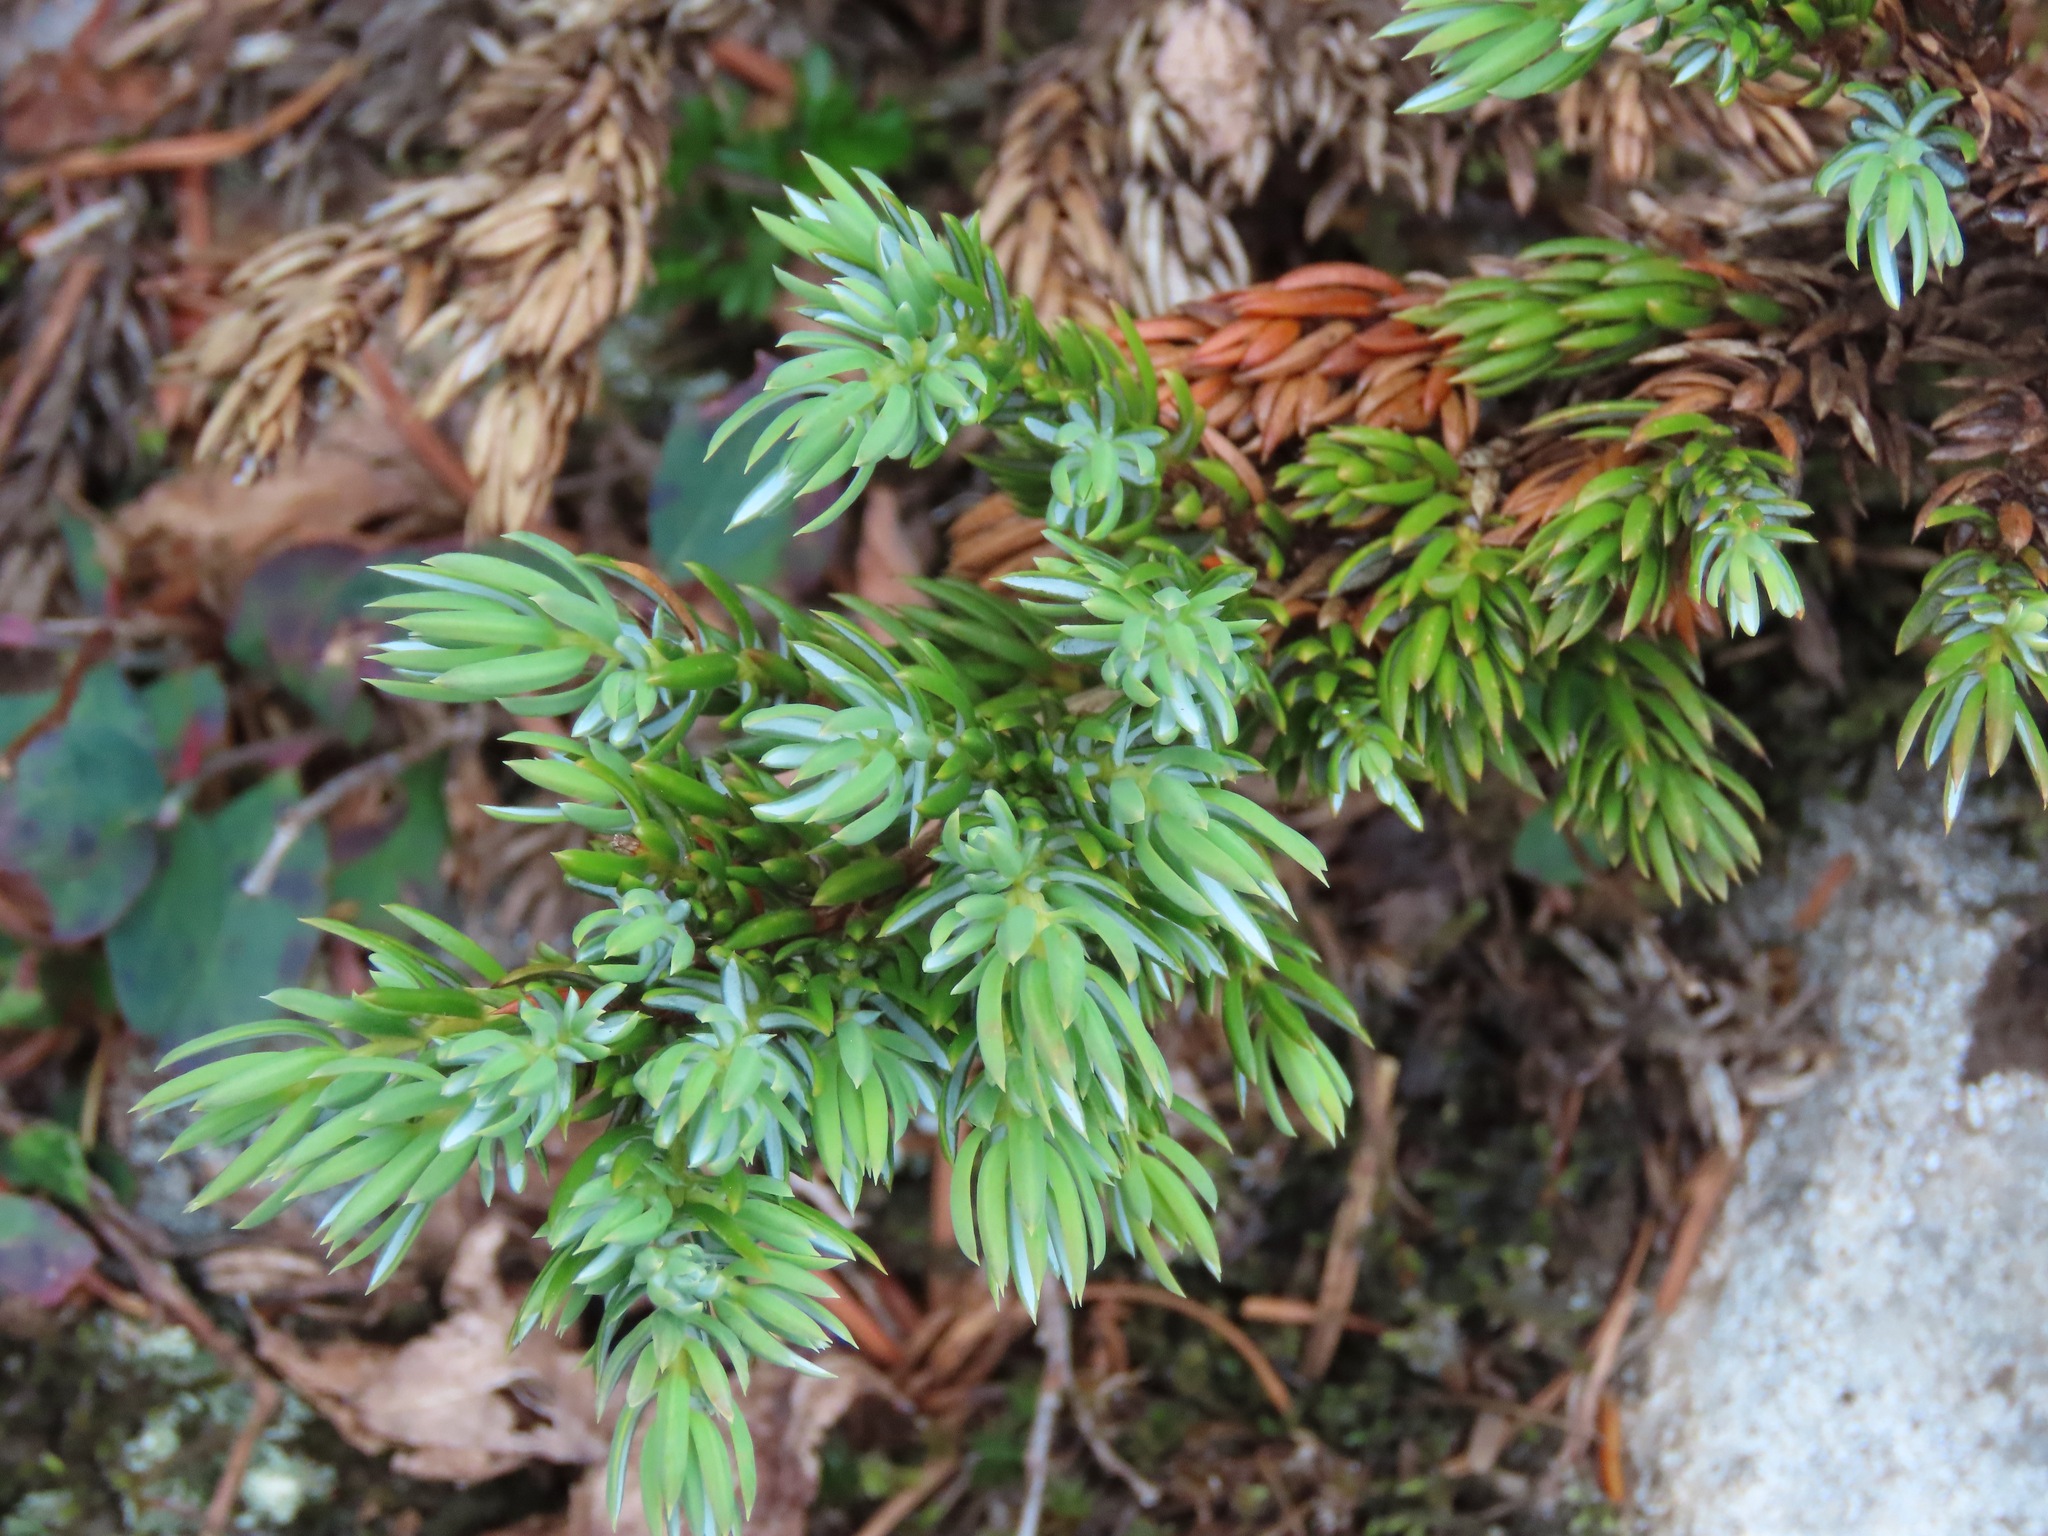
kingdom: Plantae
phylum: Tracheophyta
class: Pinopsida
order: Pinales
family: Cupressaceae
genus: Juniperus
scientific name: Juniperus communis
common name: Common juniper
